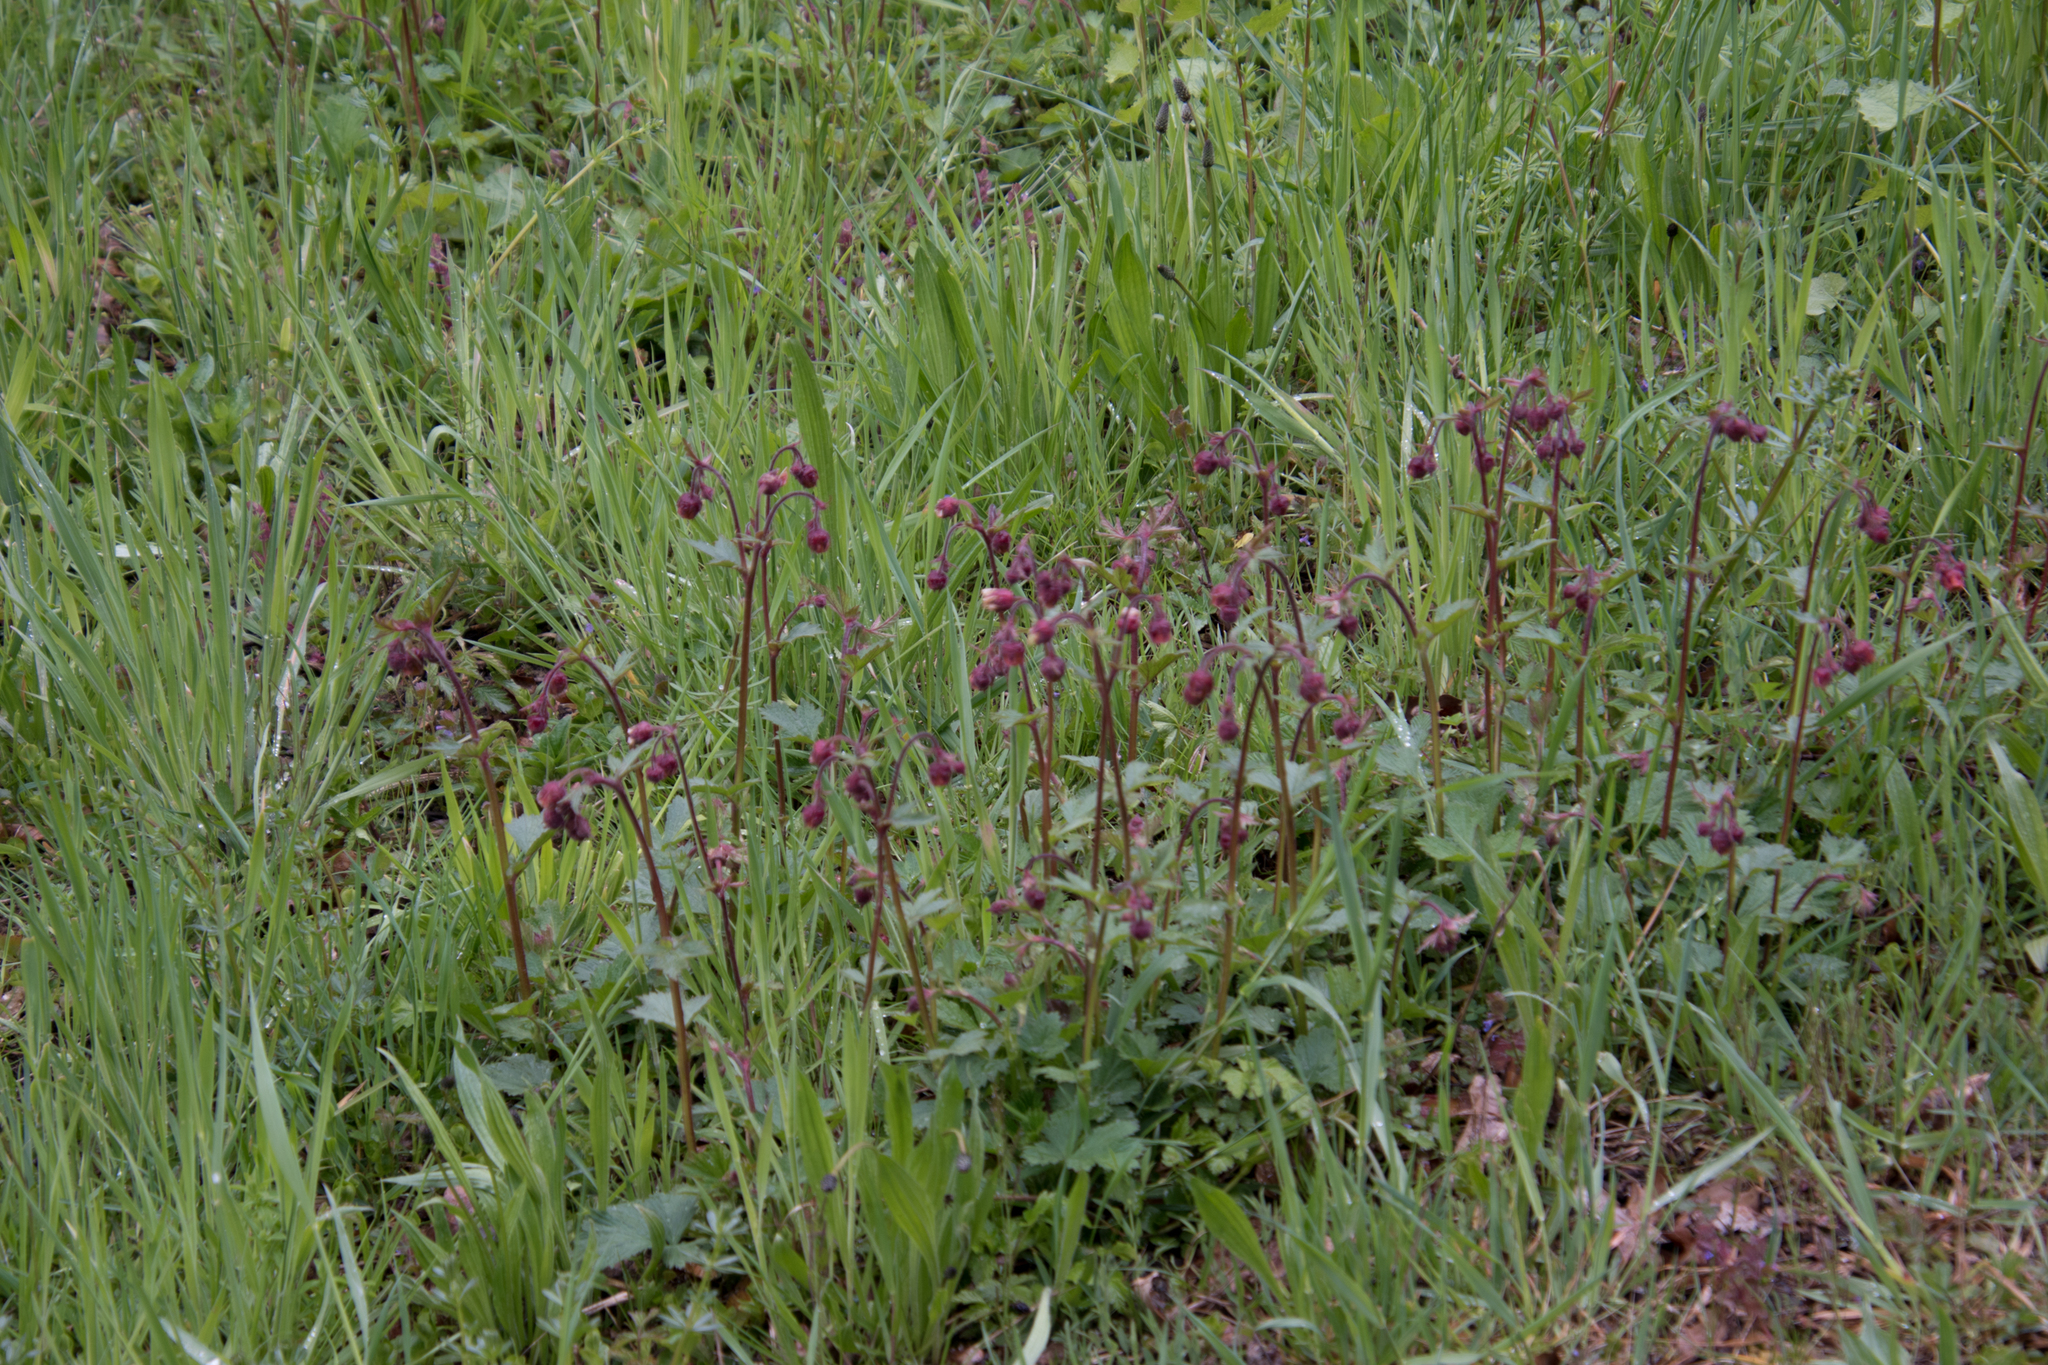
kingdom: Plantae
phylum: Tracheophyta
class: Magnoliopsida
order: Rosales
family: Rosaceae
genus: Geum
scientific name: Geum rivale
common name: Water avens
